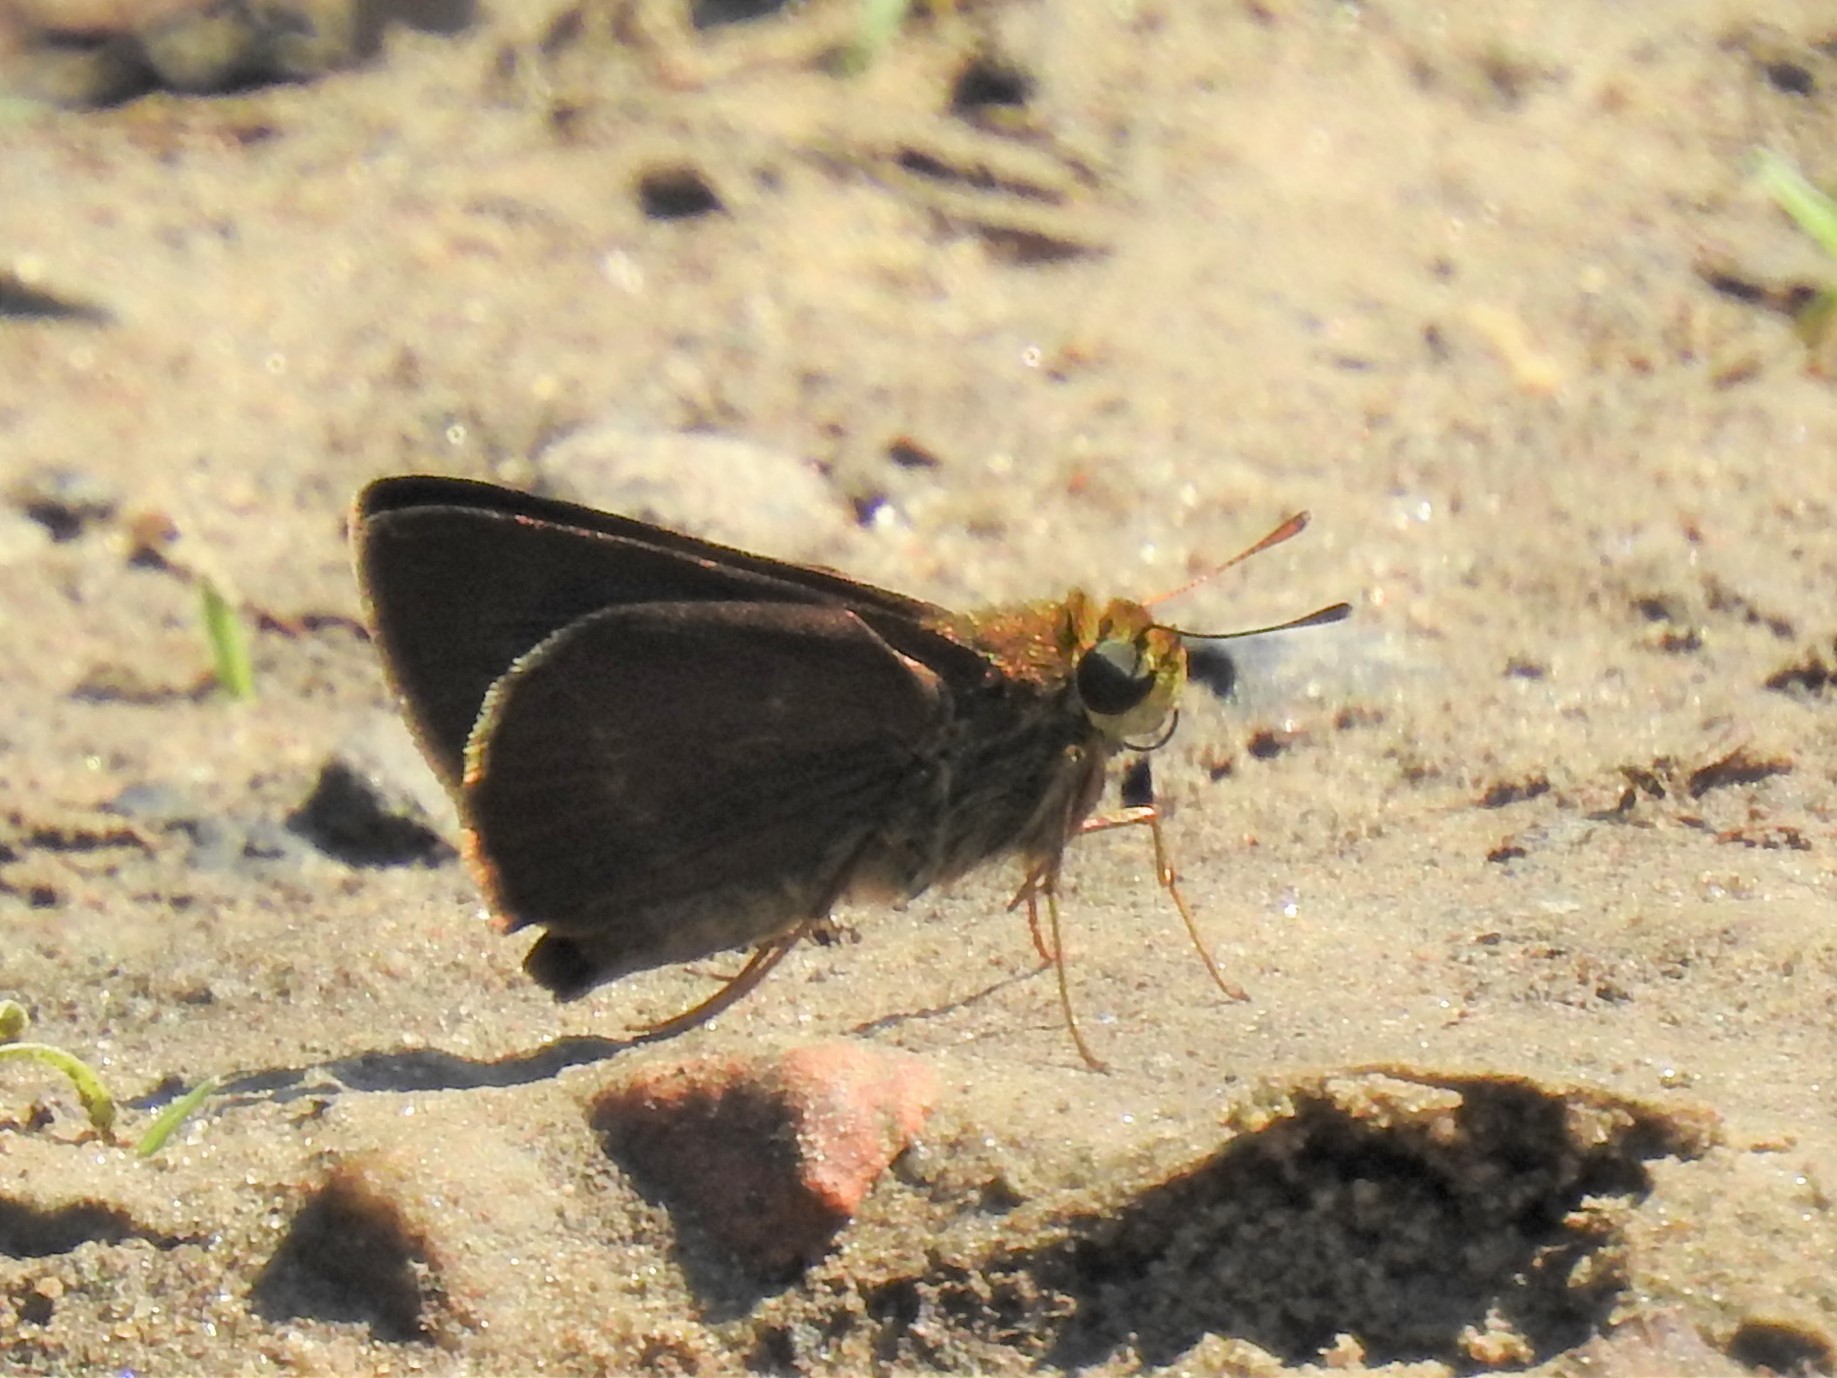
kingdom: Animalia
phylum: Arthropoda
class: Insecta
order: Lepidoptera
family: Hesperiidae
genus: Euphyes
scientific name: Euphyes vestris
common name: Dun skipper
